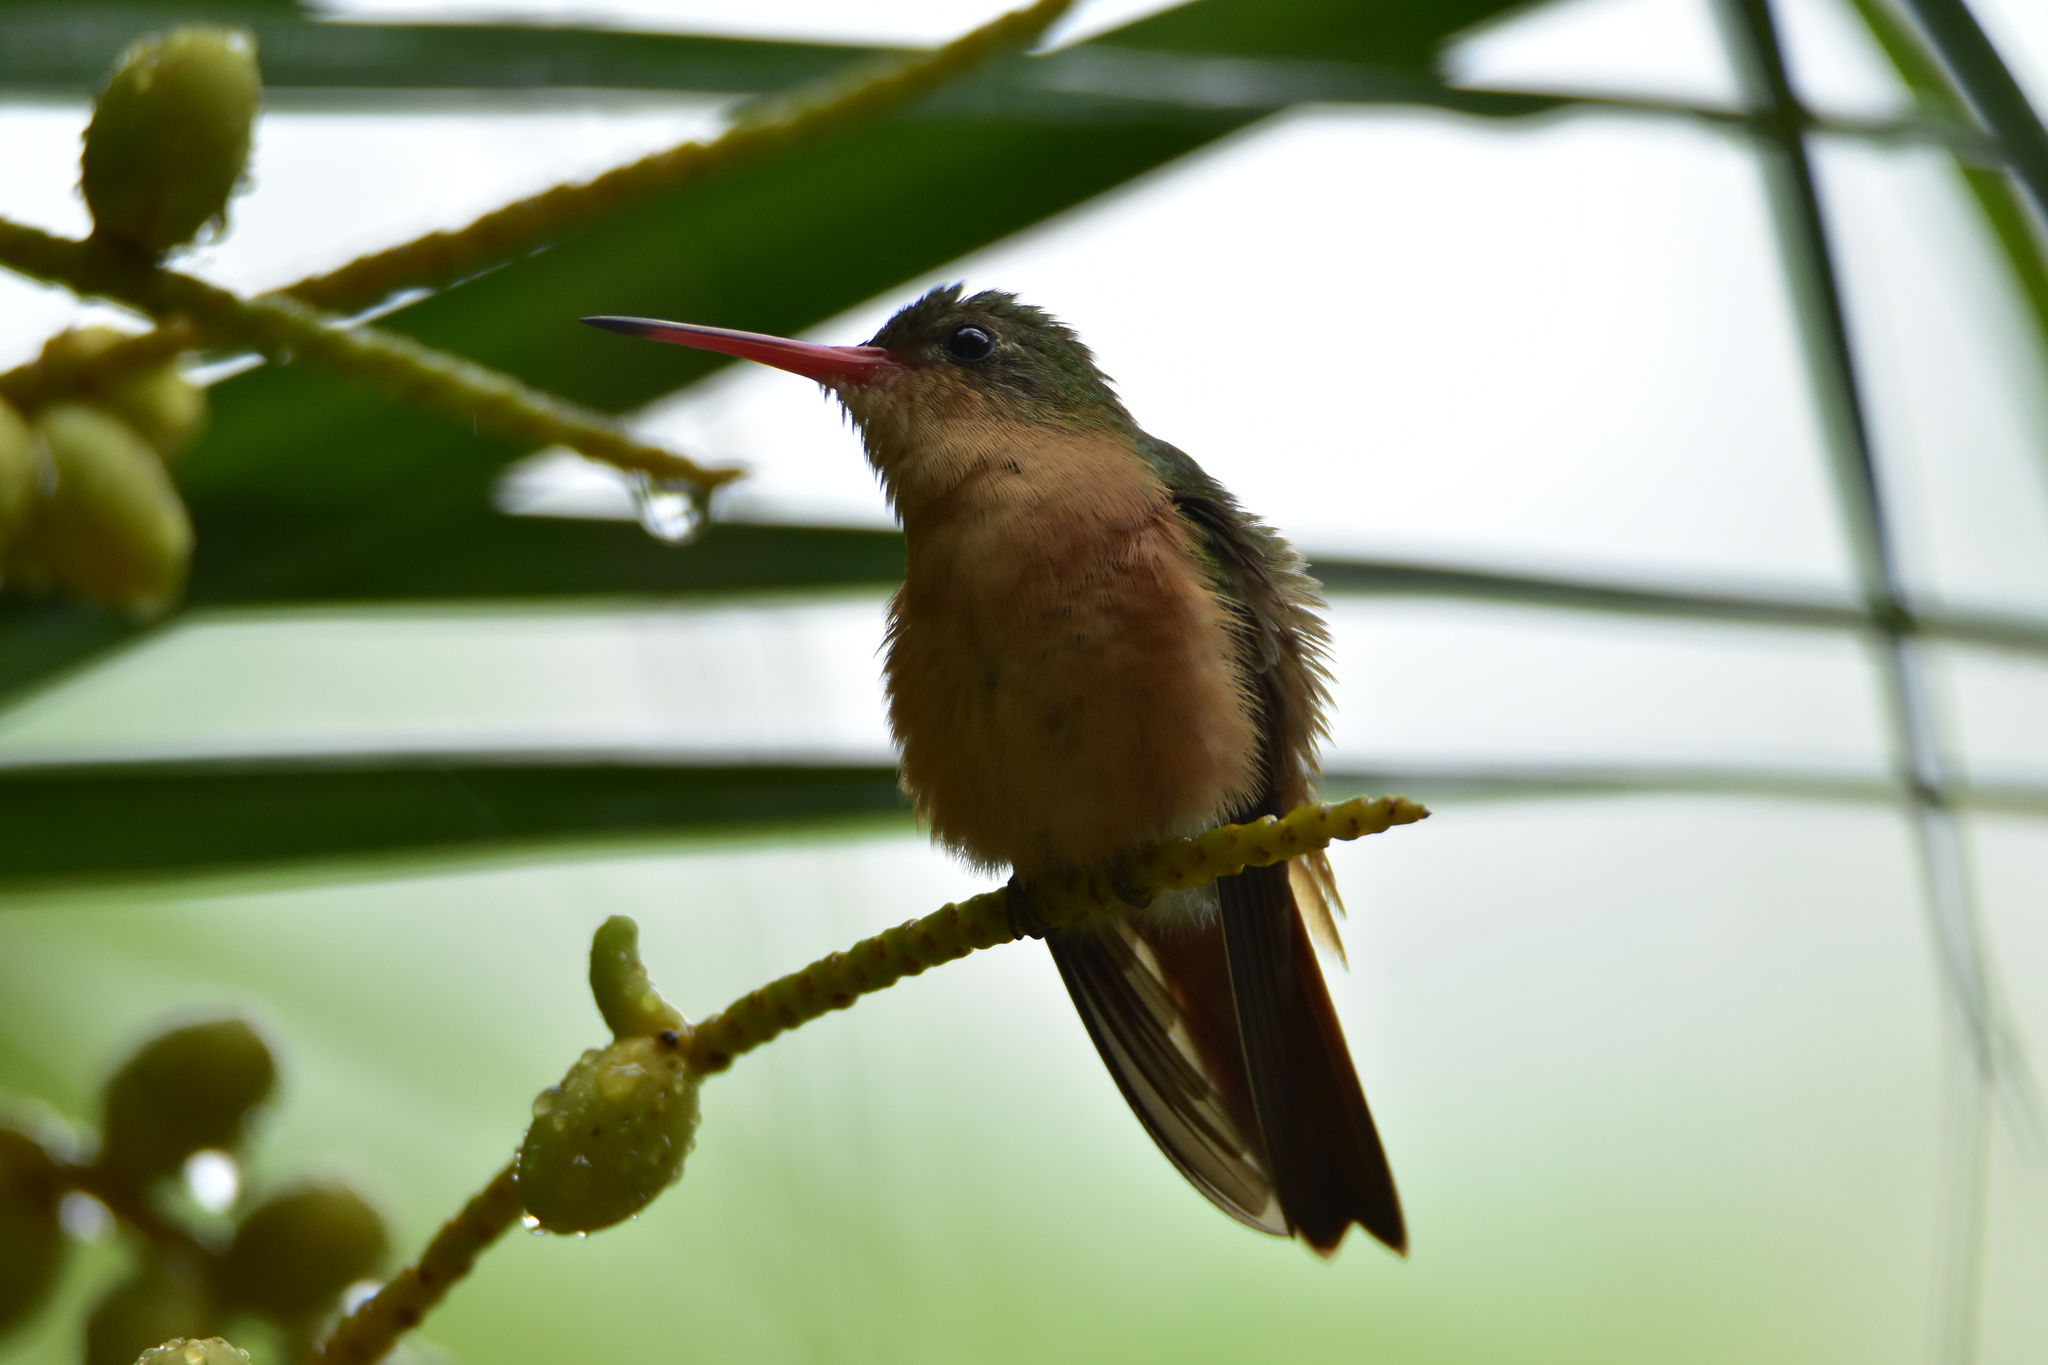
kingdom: Animalia
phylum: Chordata
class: Aves
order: Apodiformes
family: Trochilidae
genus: Amazilia
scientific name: Amazilia rutila
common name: Cinnamon hummingbird
